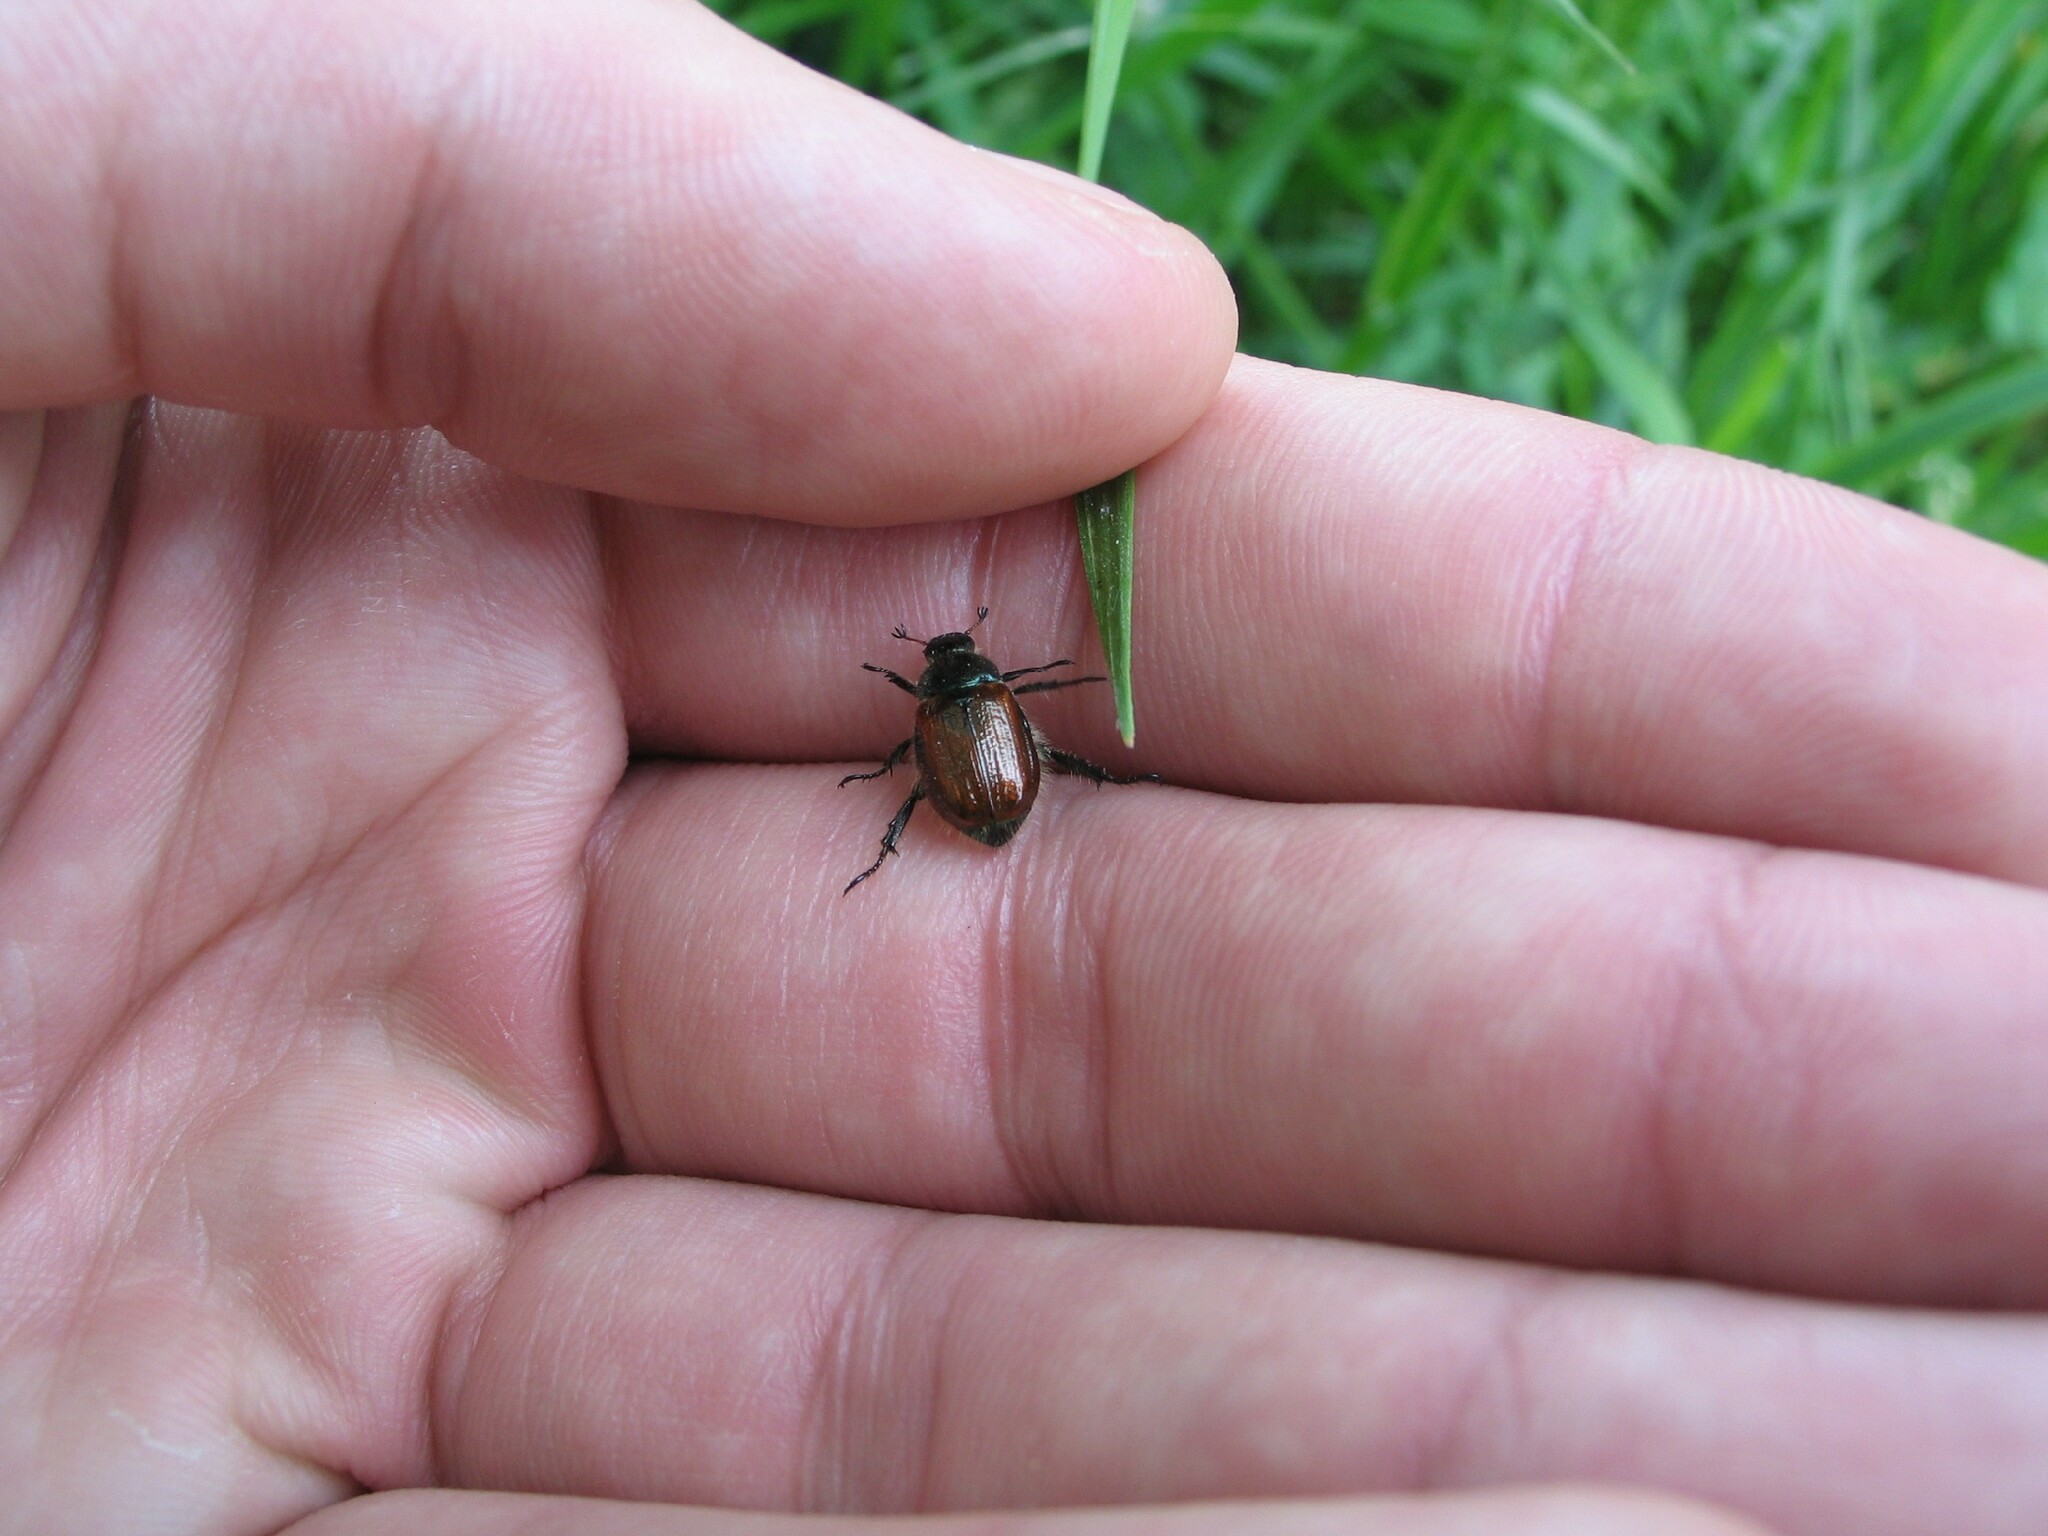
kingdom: Animalia
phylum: Arthropoda
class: Insecta
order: Coleoptera
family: Scarabaeidae
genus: Phyllopertha
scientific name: Phyllopertha horticola
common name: Garden chafer
